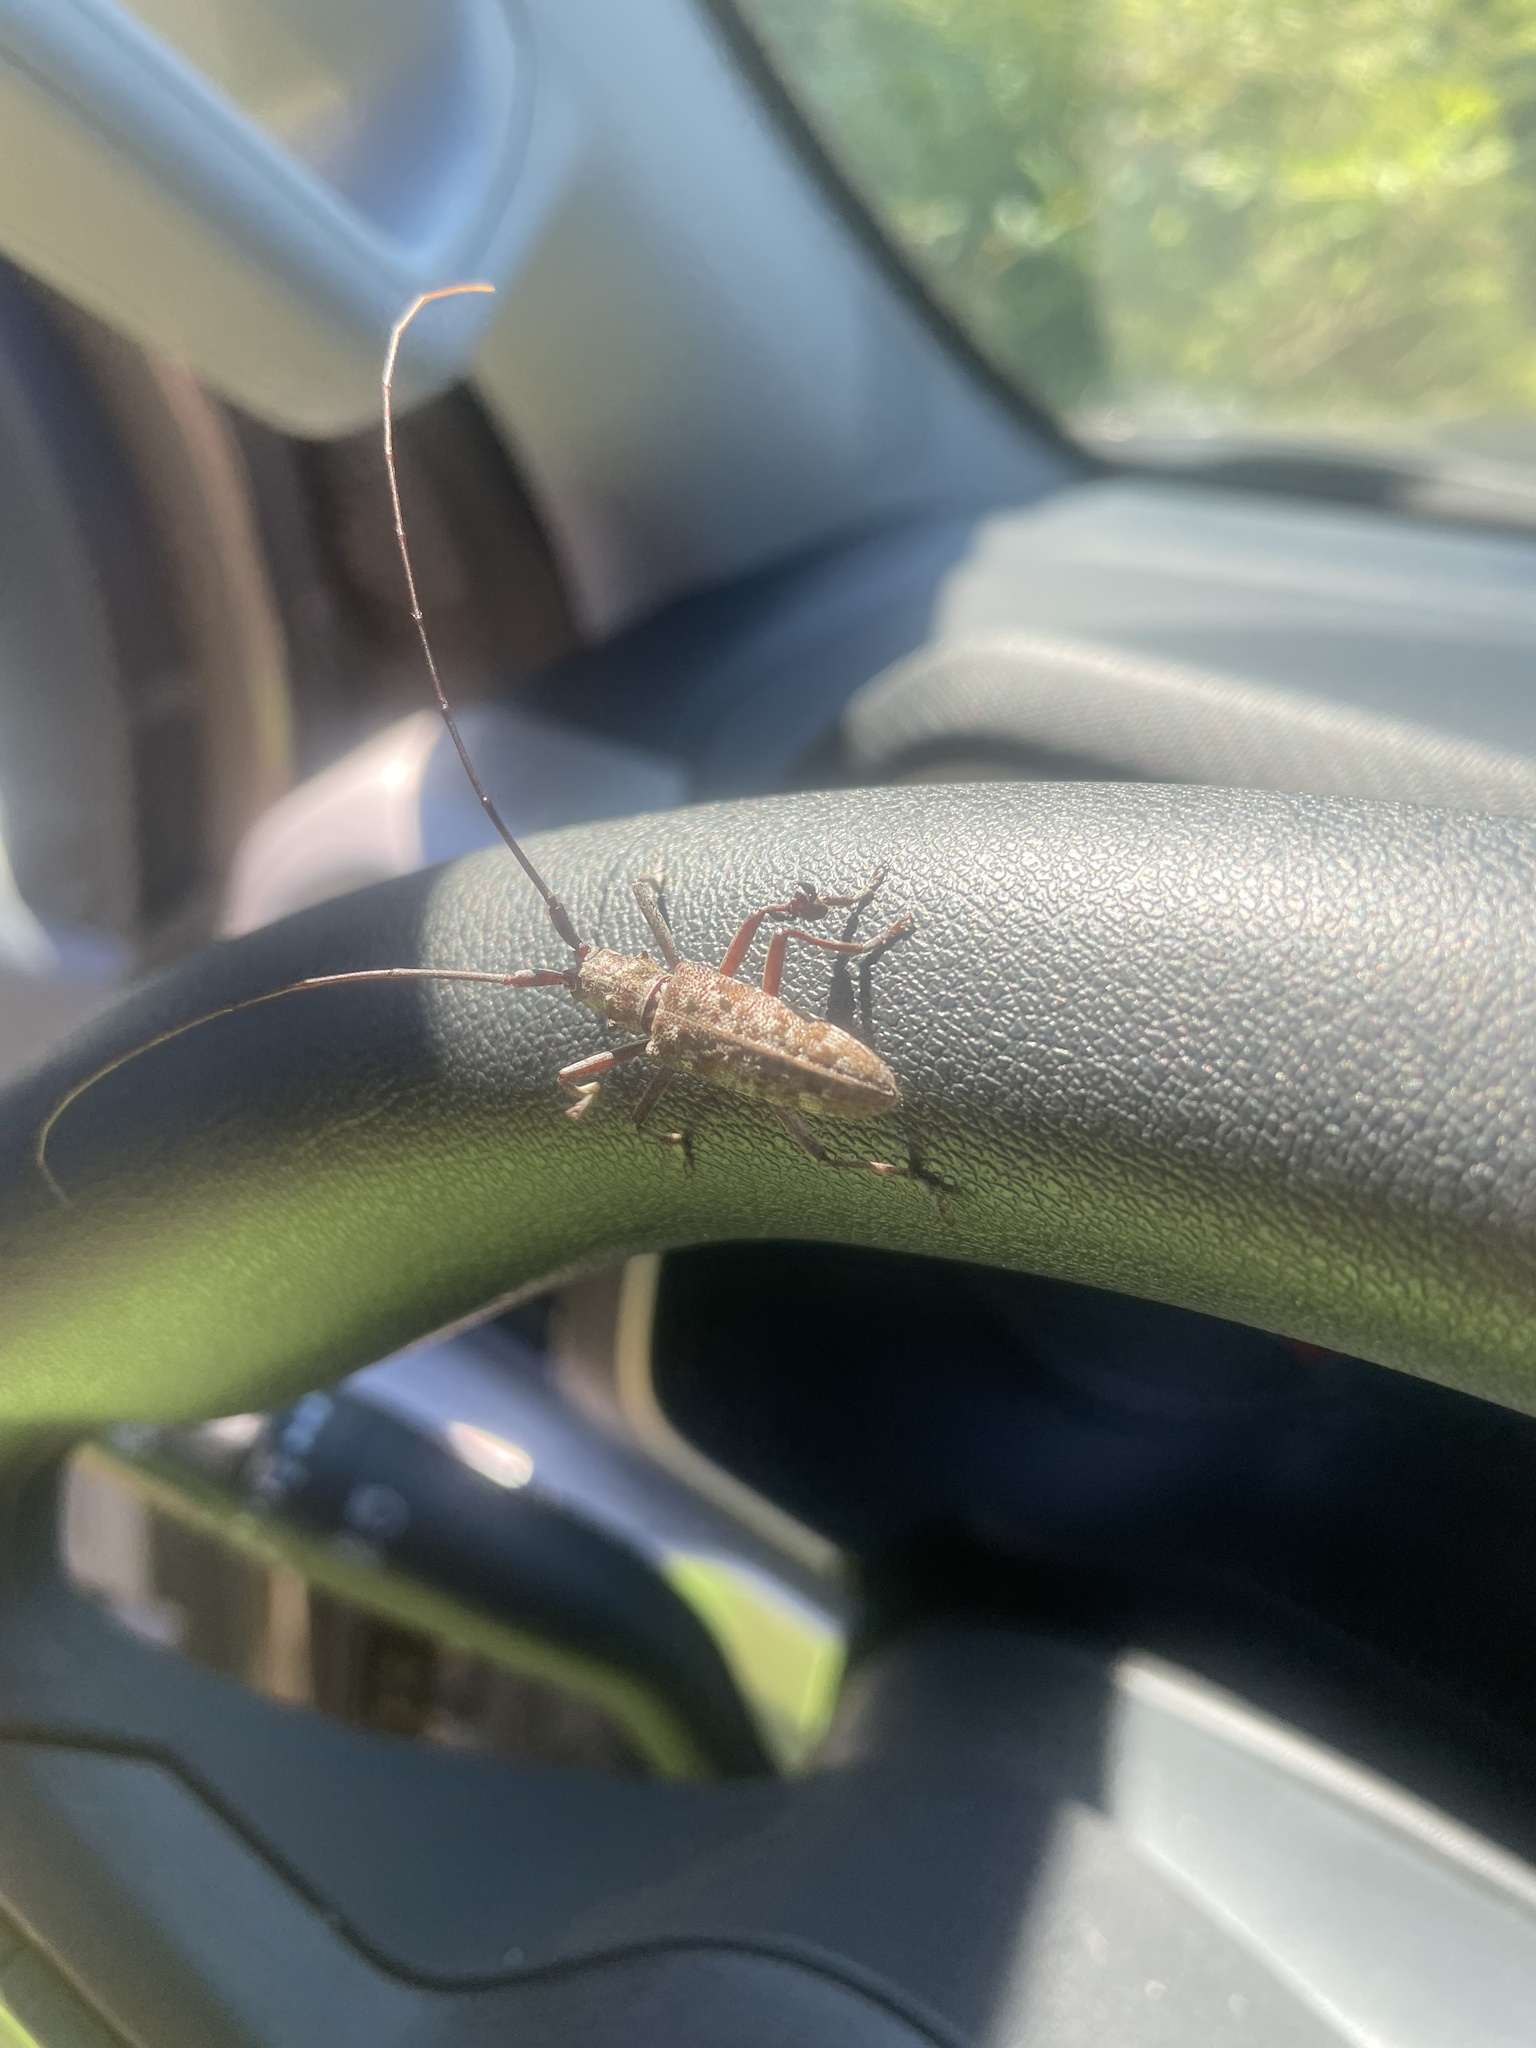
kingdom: Animalia
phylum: Arthropoda
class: Insecta
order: Coleoptera
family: Cerambycidae
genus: Monochamus
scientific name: Monochamus carolinensis
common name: Carolina pine sawyer
